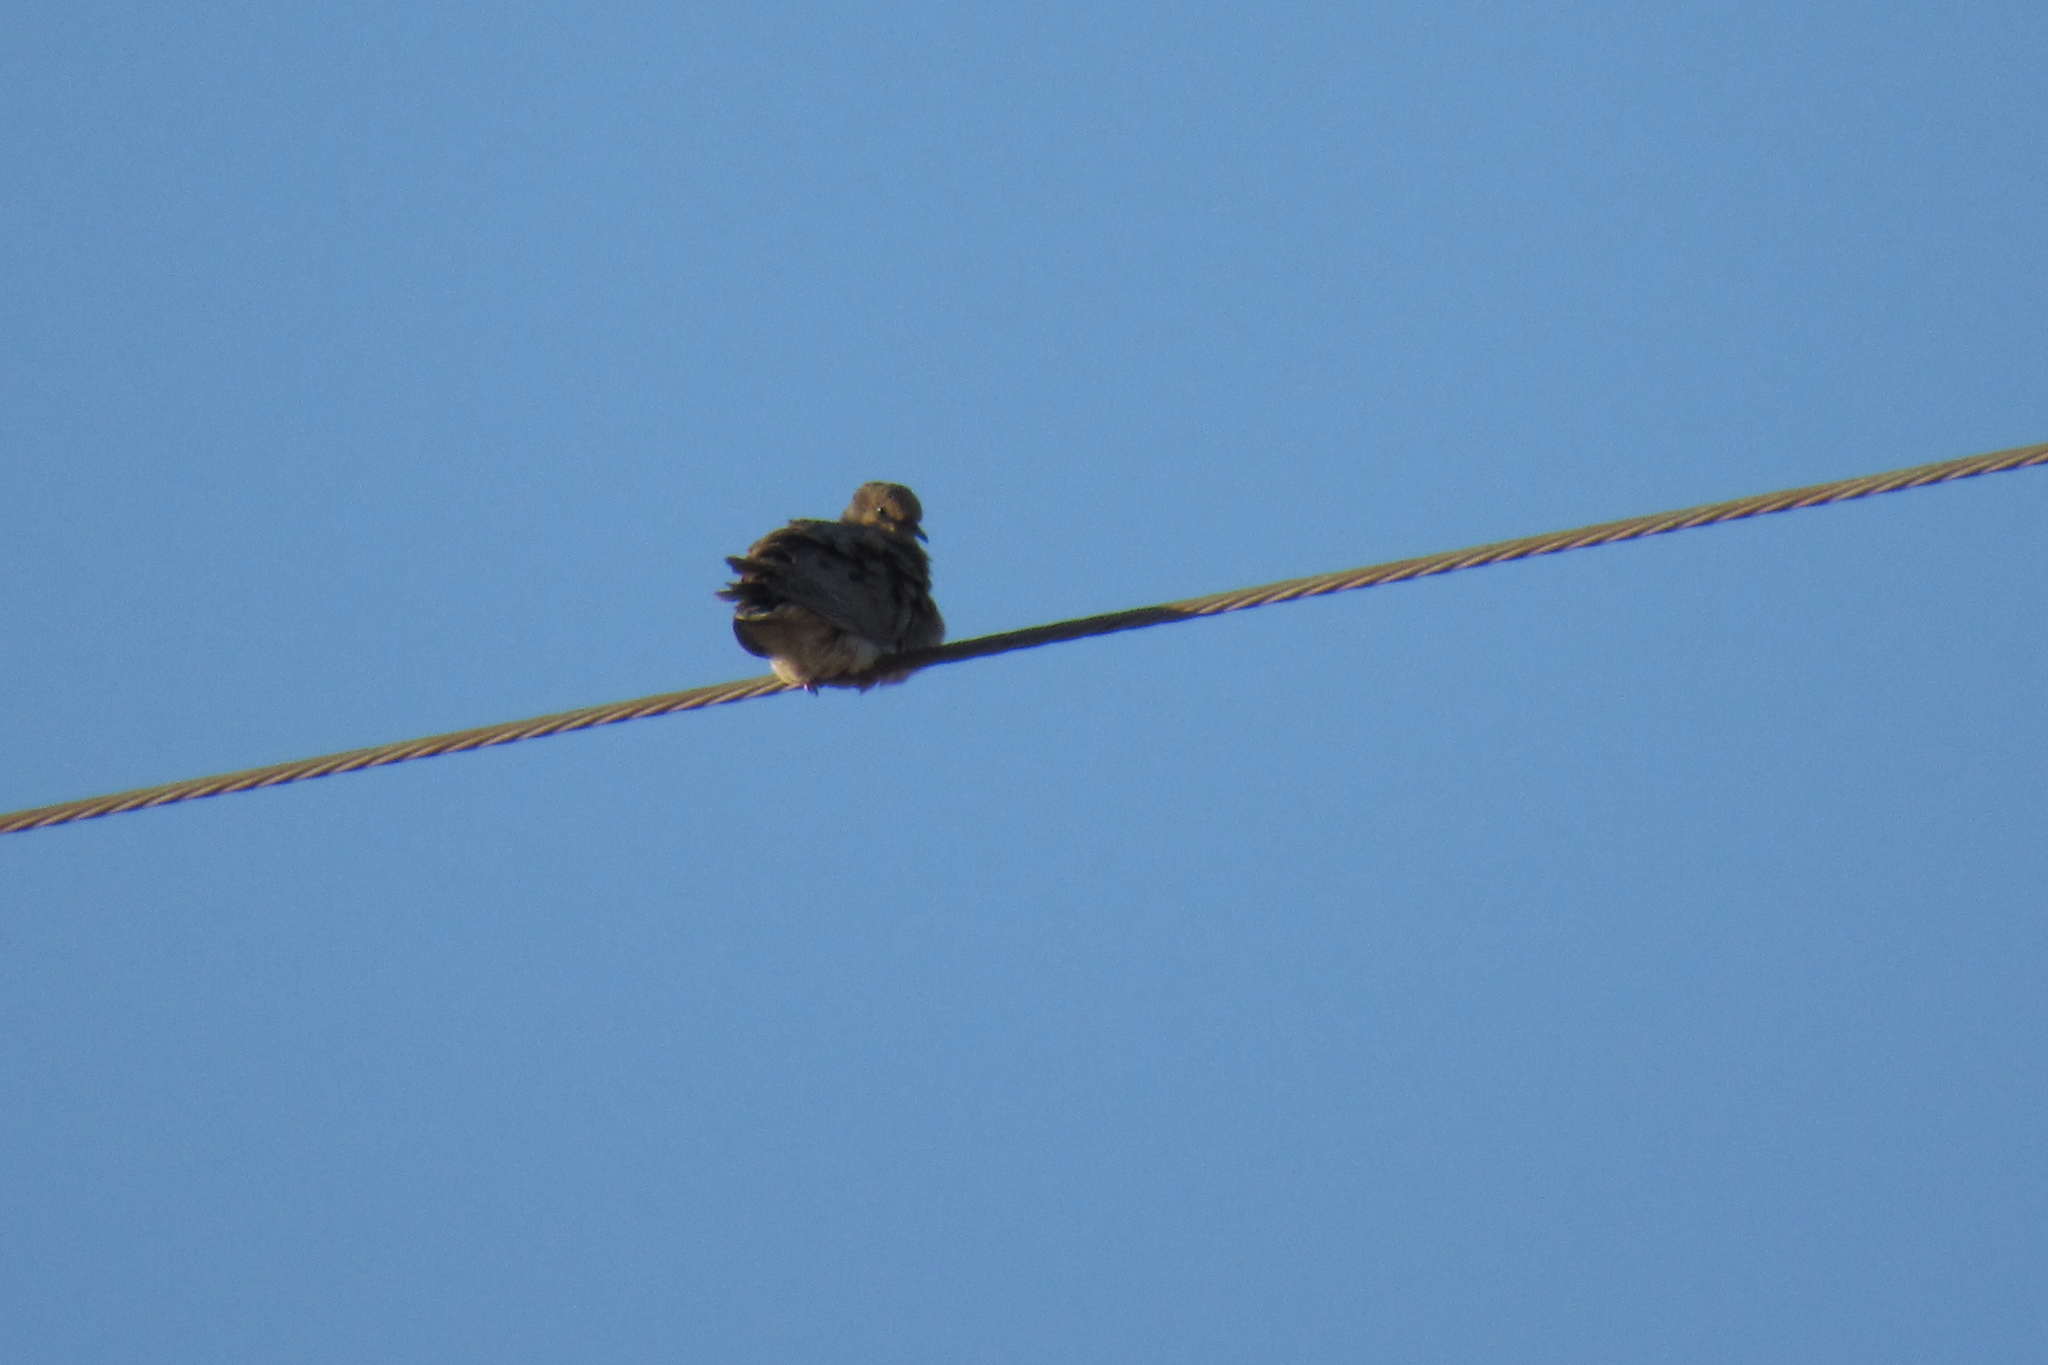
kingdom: Animalia
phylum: Chordata
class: Aves
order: Columbiformes
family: Columbidae
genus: Zenaida
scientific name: Zenaida macroura
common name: Mourning dove
